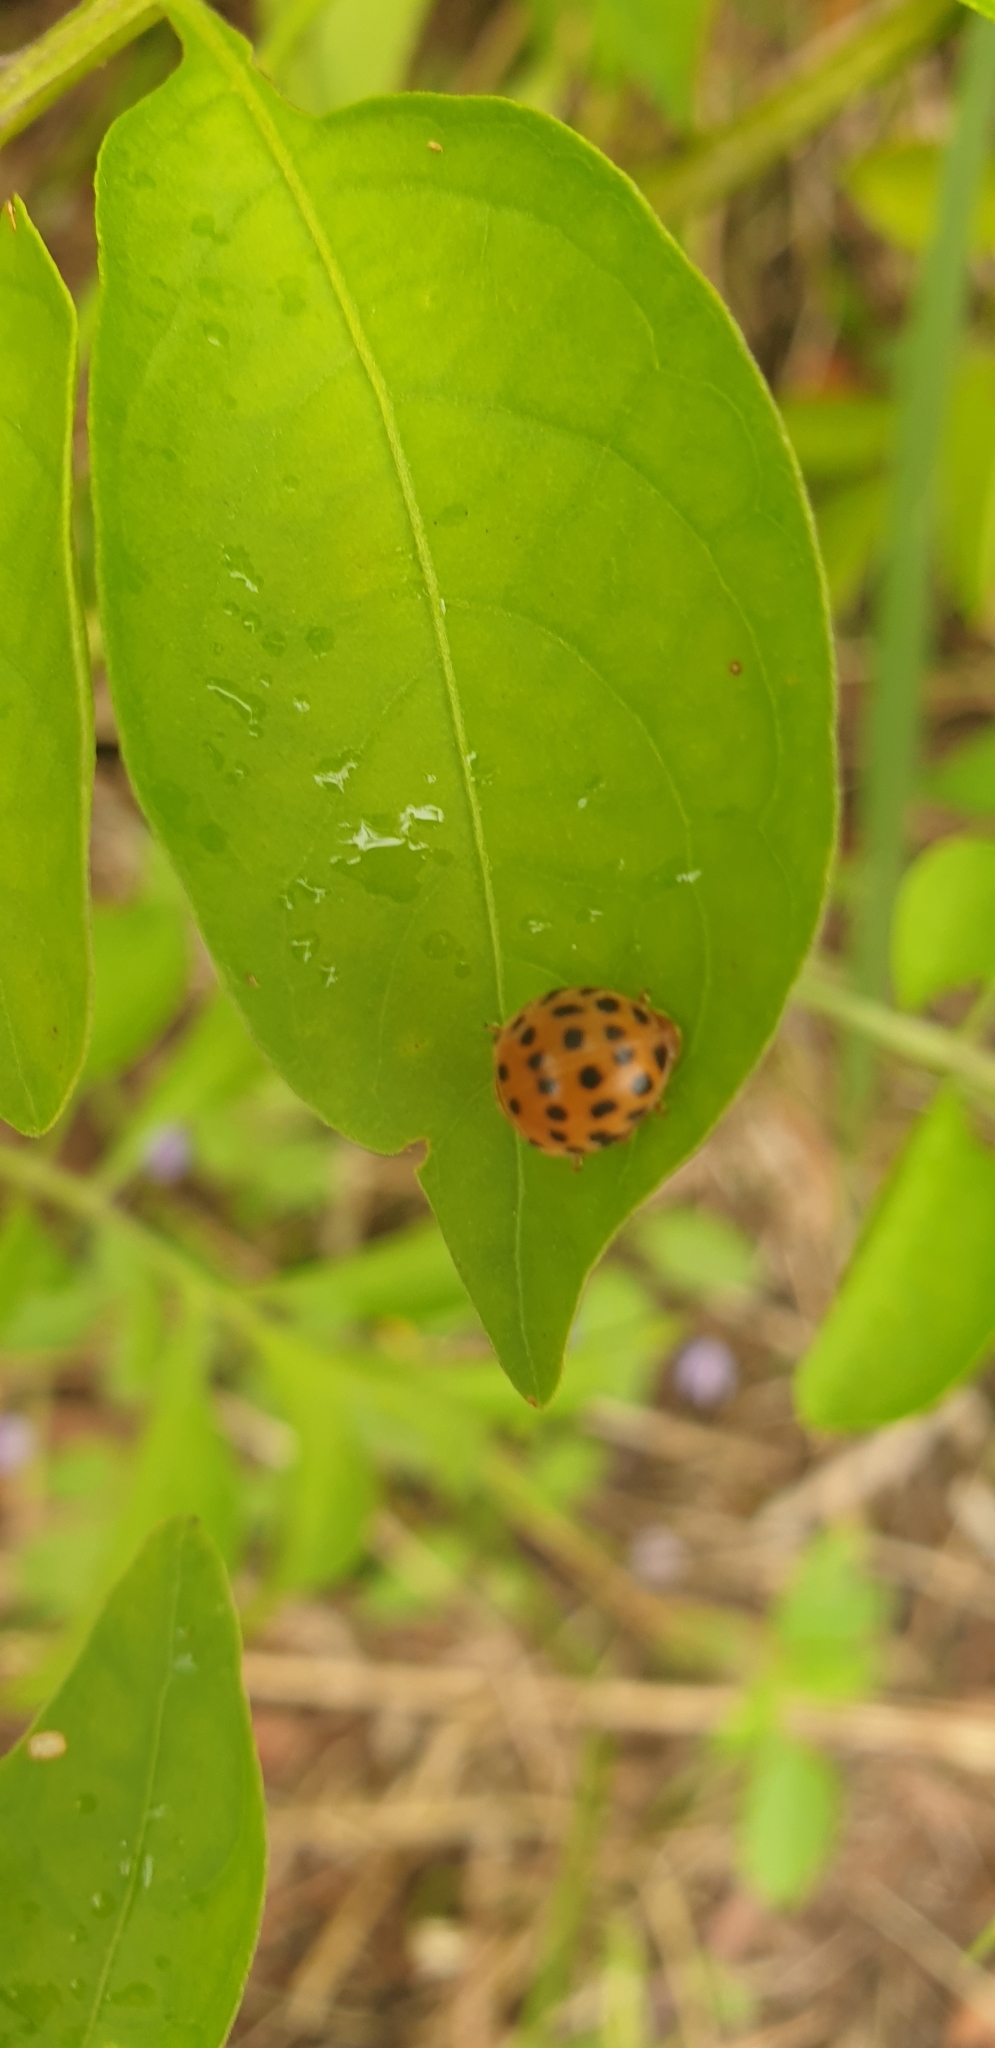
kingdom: Animalia
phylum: Arthropoda
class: Insecta
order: Coleoptera
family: Coccinellidae
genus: Henosepilachna
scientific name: Henosepilachna vigintioctopunctata
